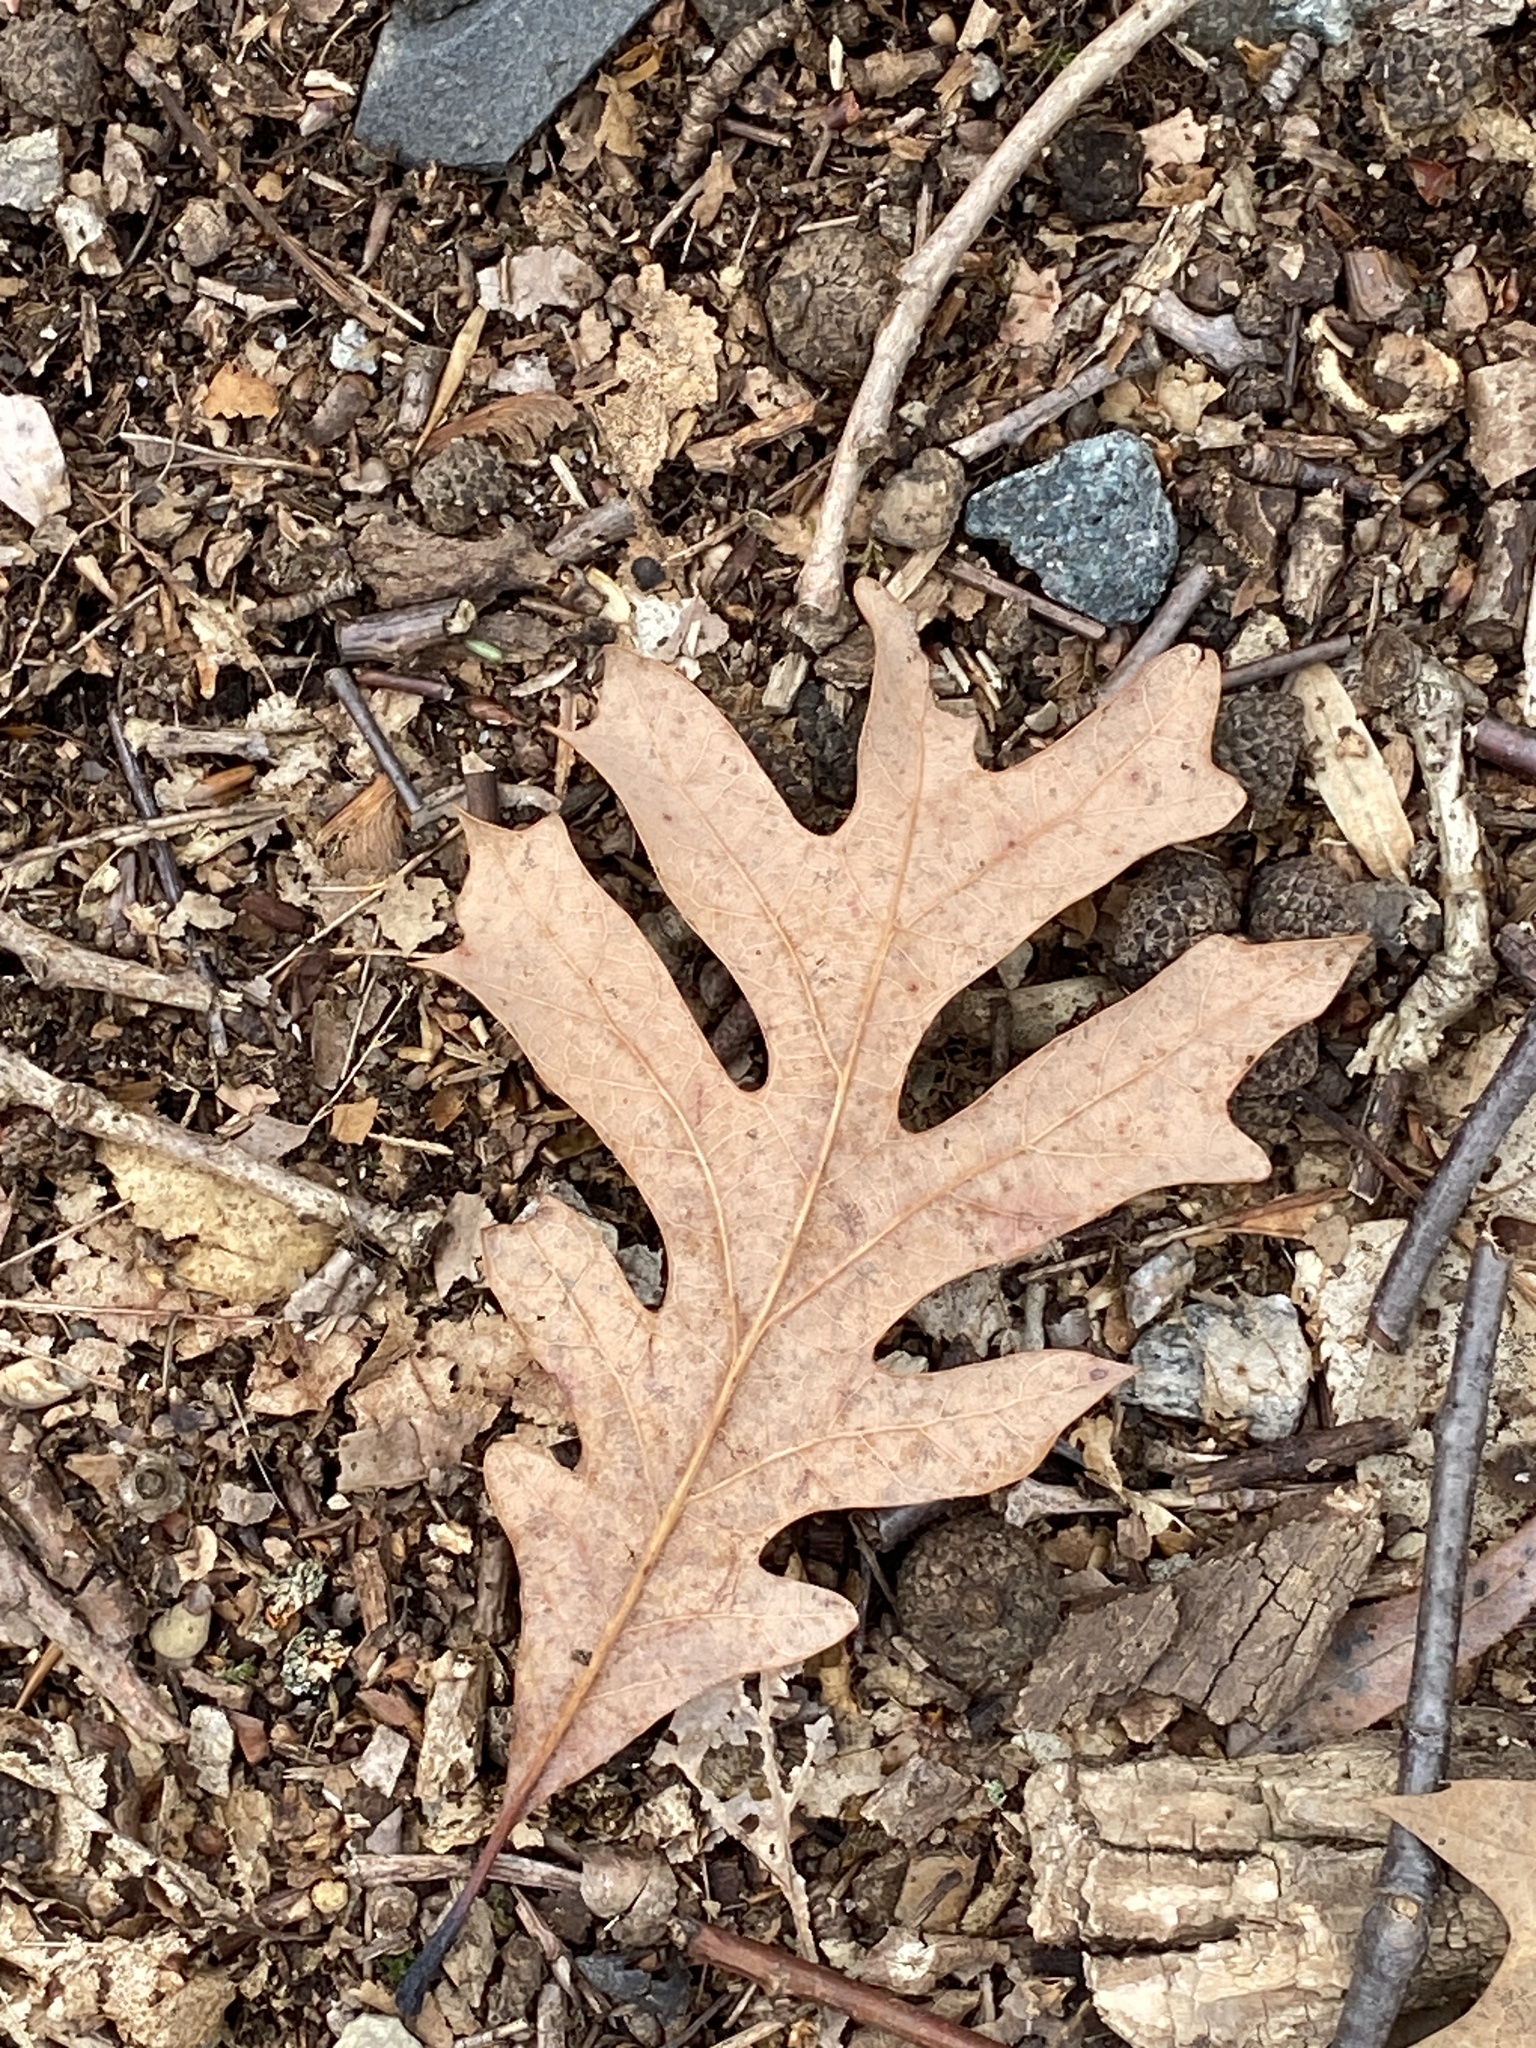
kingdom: Plantae
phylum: Tracheophyta
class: Magnoliopsida
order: Fagales
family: Fagaceae
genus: Quercus
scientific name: Quercus alba
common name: White oak
